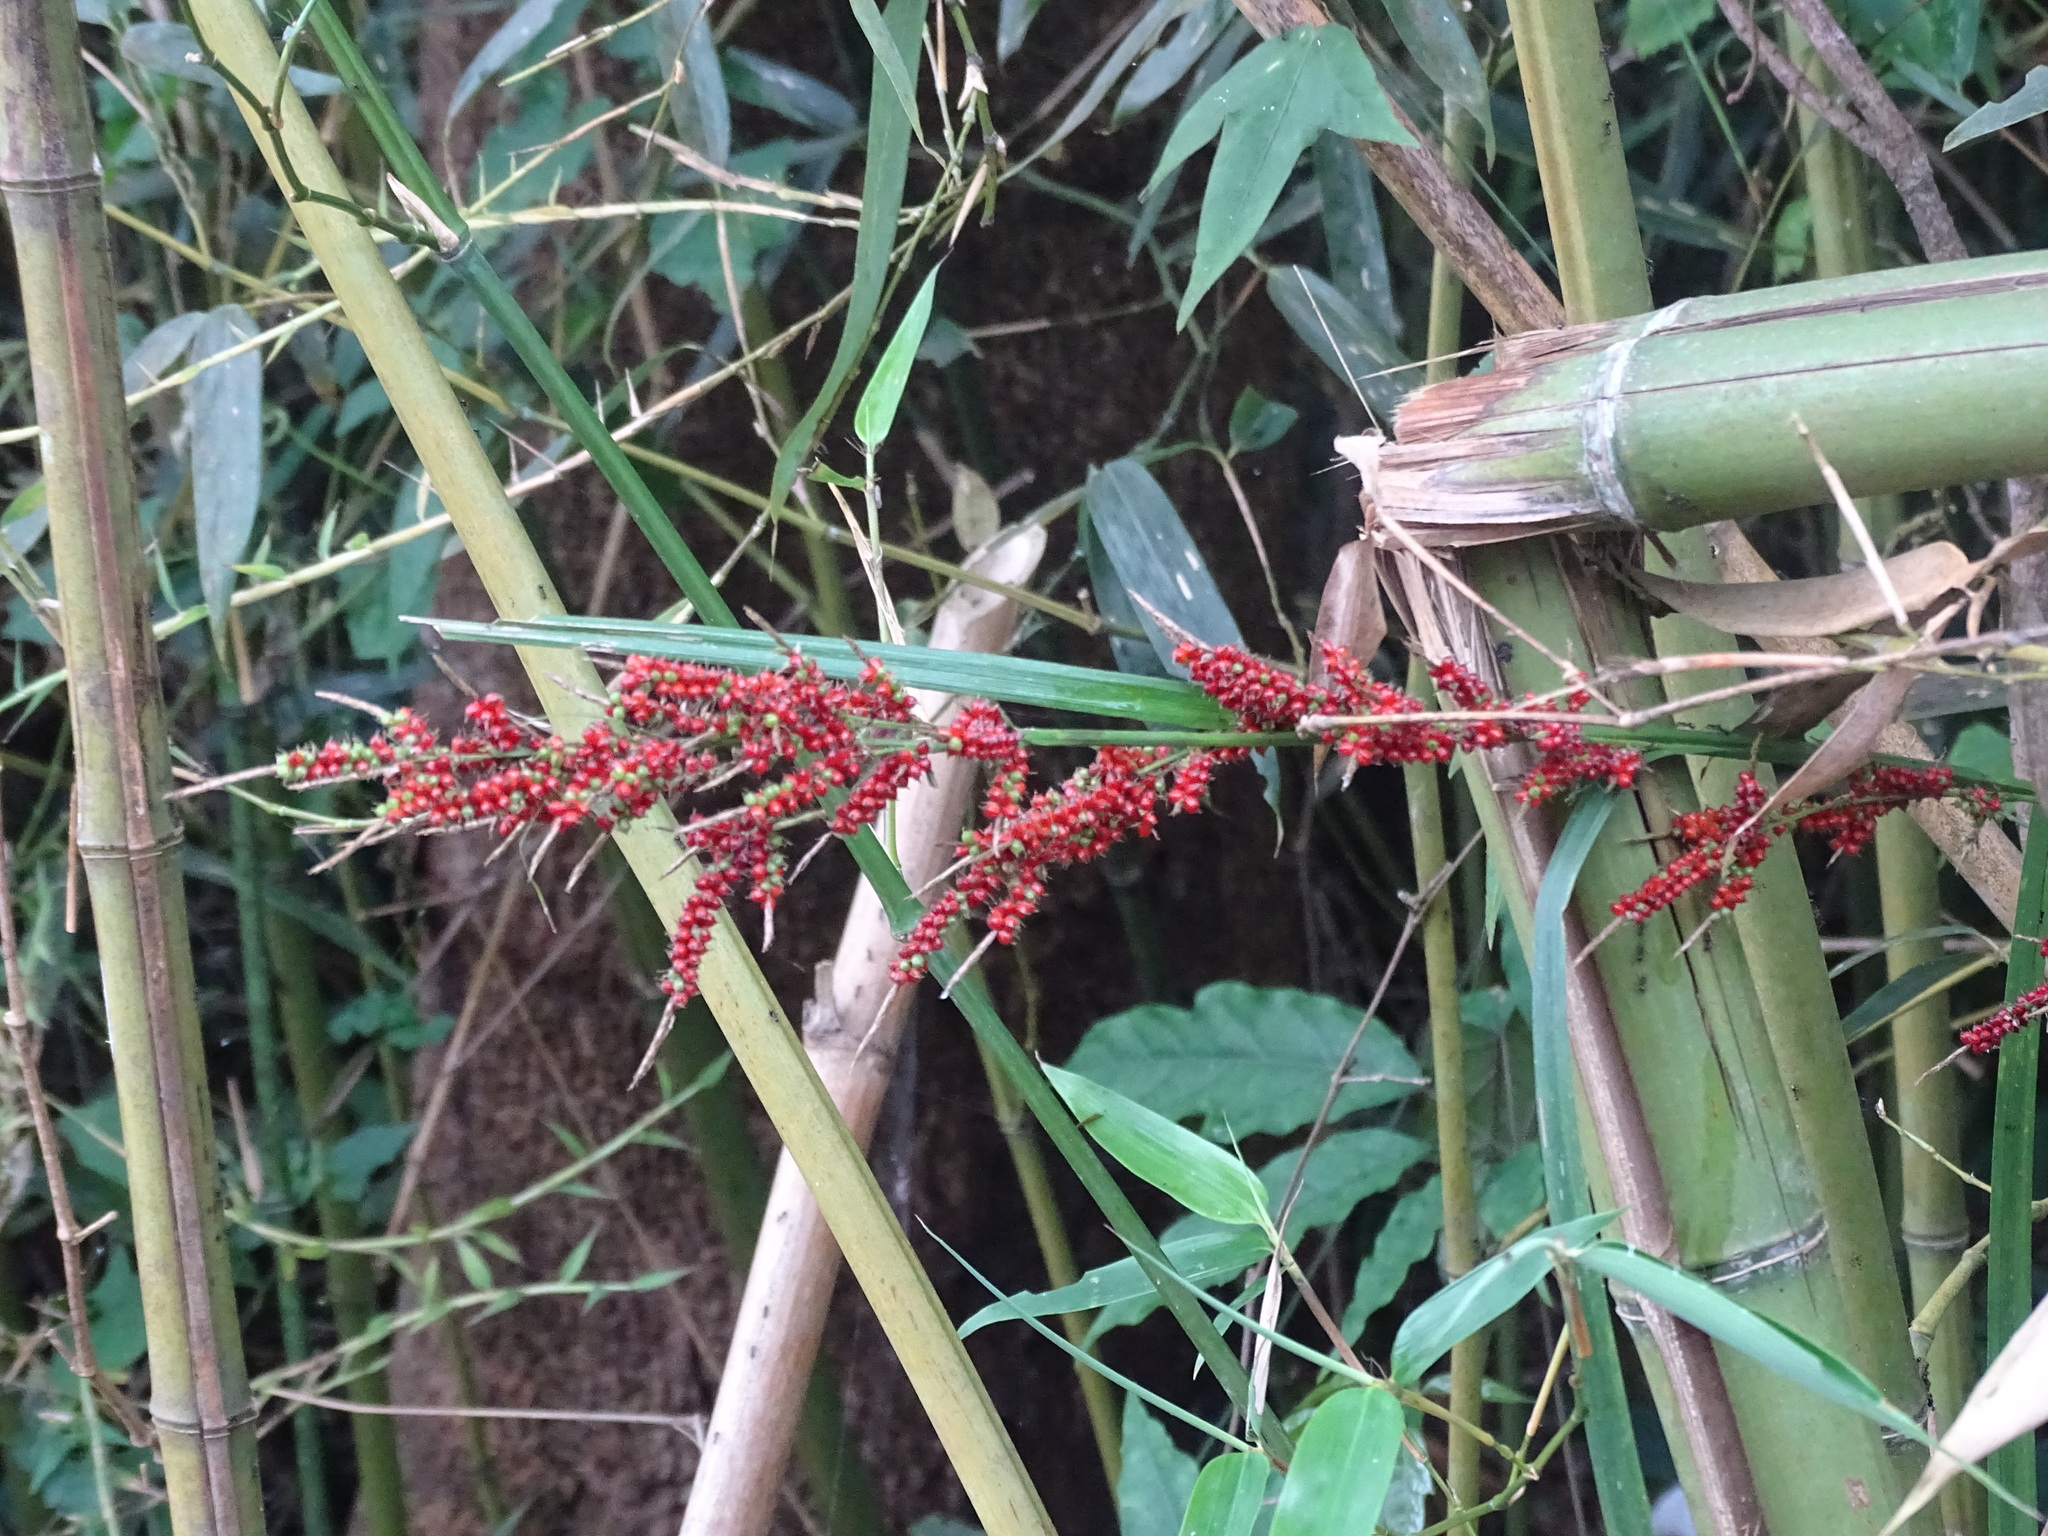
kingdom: Plantae
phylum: Tracheophyta
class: Liliopsida
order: Poales
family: Cyperaceae
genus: Carex
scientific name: Carex baccans
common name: Crimson seeded sedge
